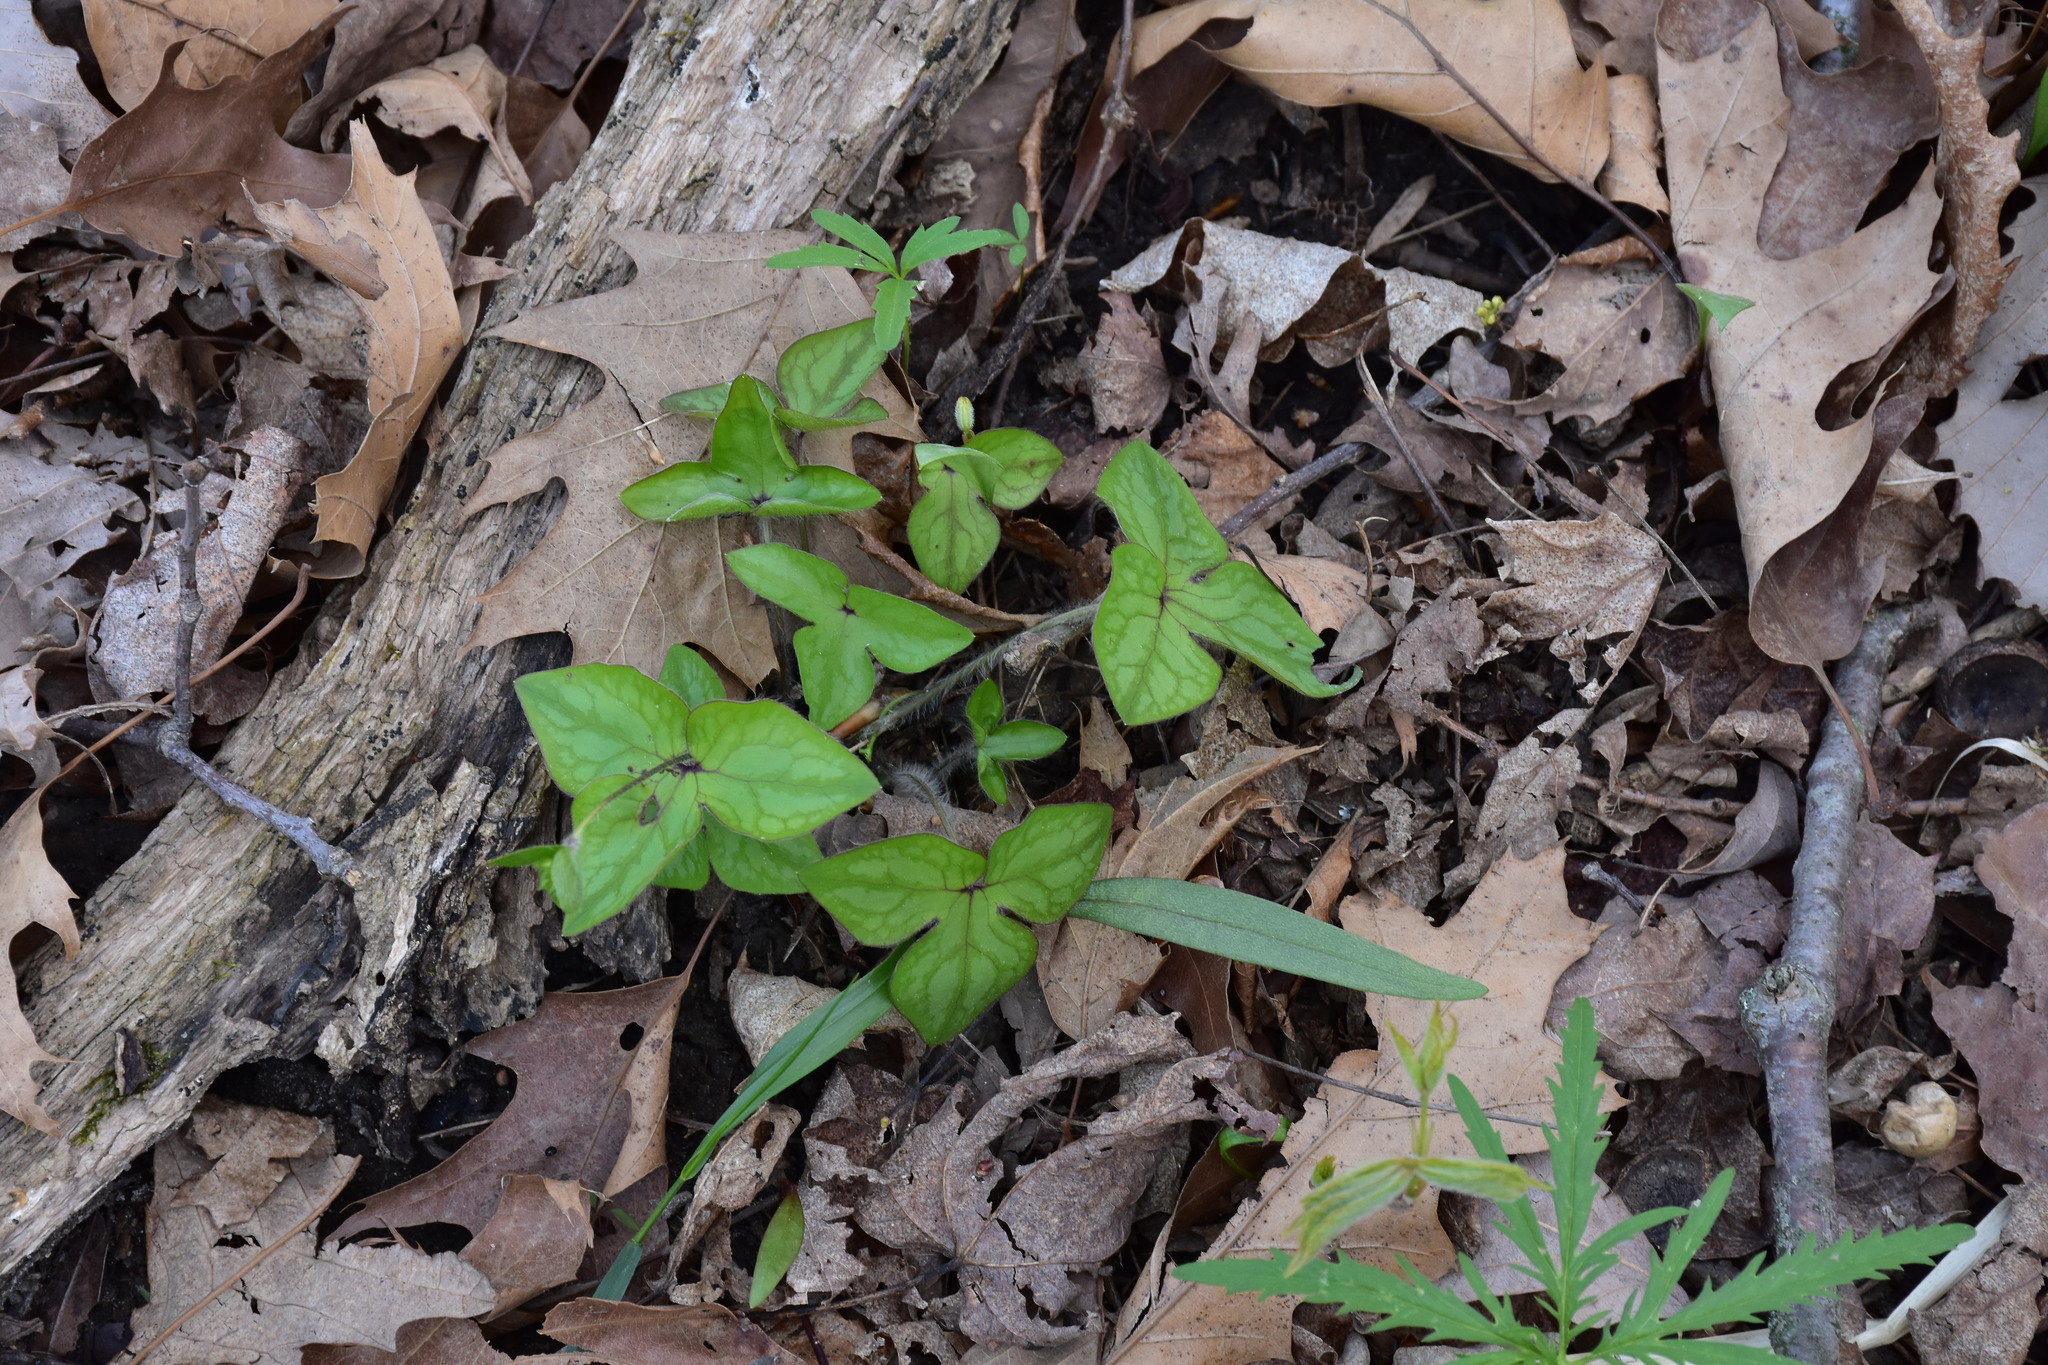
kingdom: Plantae
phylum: Tracheophyta
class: Magnoliopsida
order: Ranunculales
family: Ranunculaceae
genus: Hepatica
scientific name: Hepatica acutiloba
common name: Sharp-lobed hepatica
